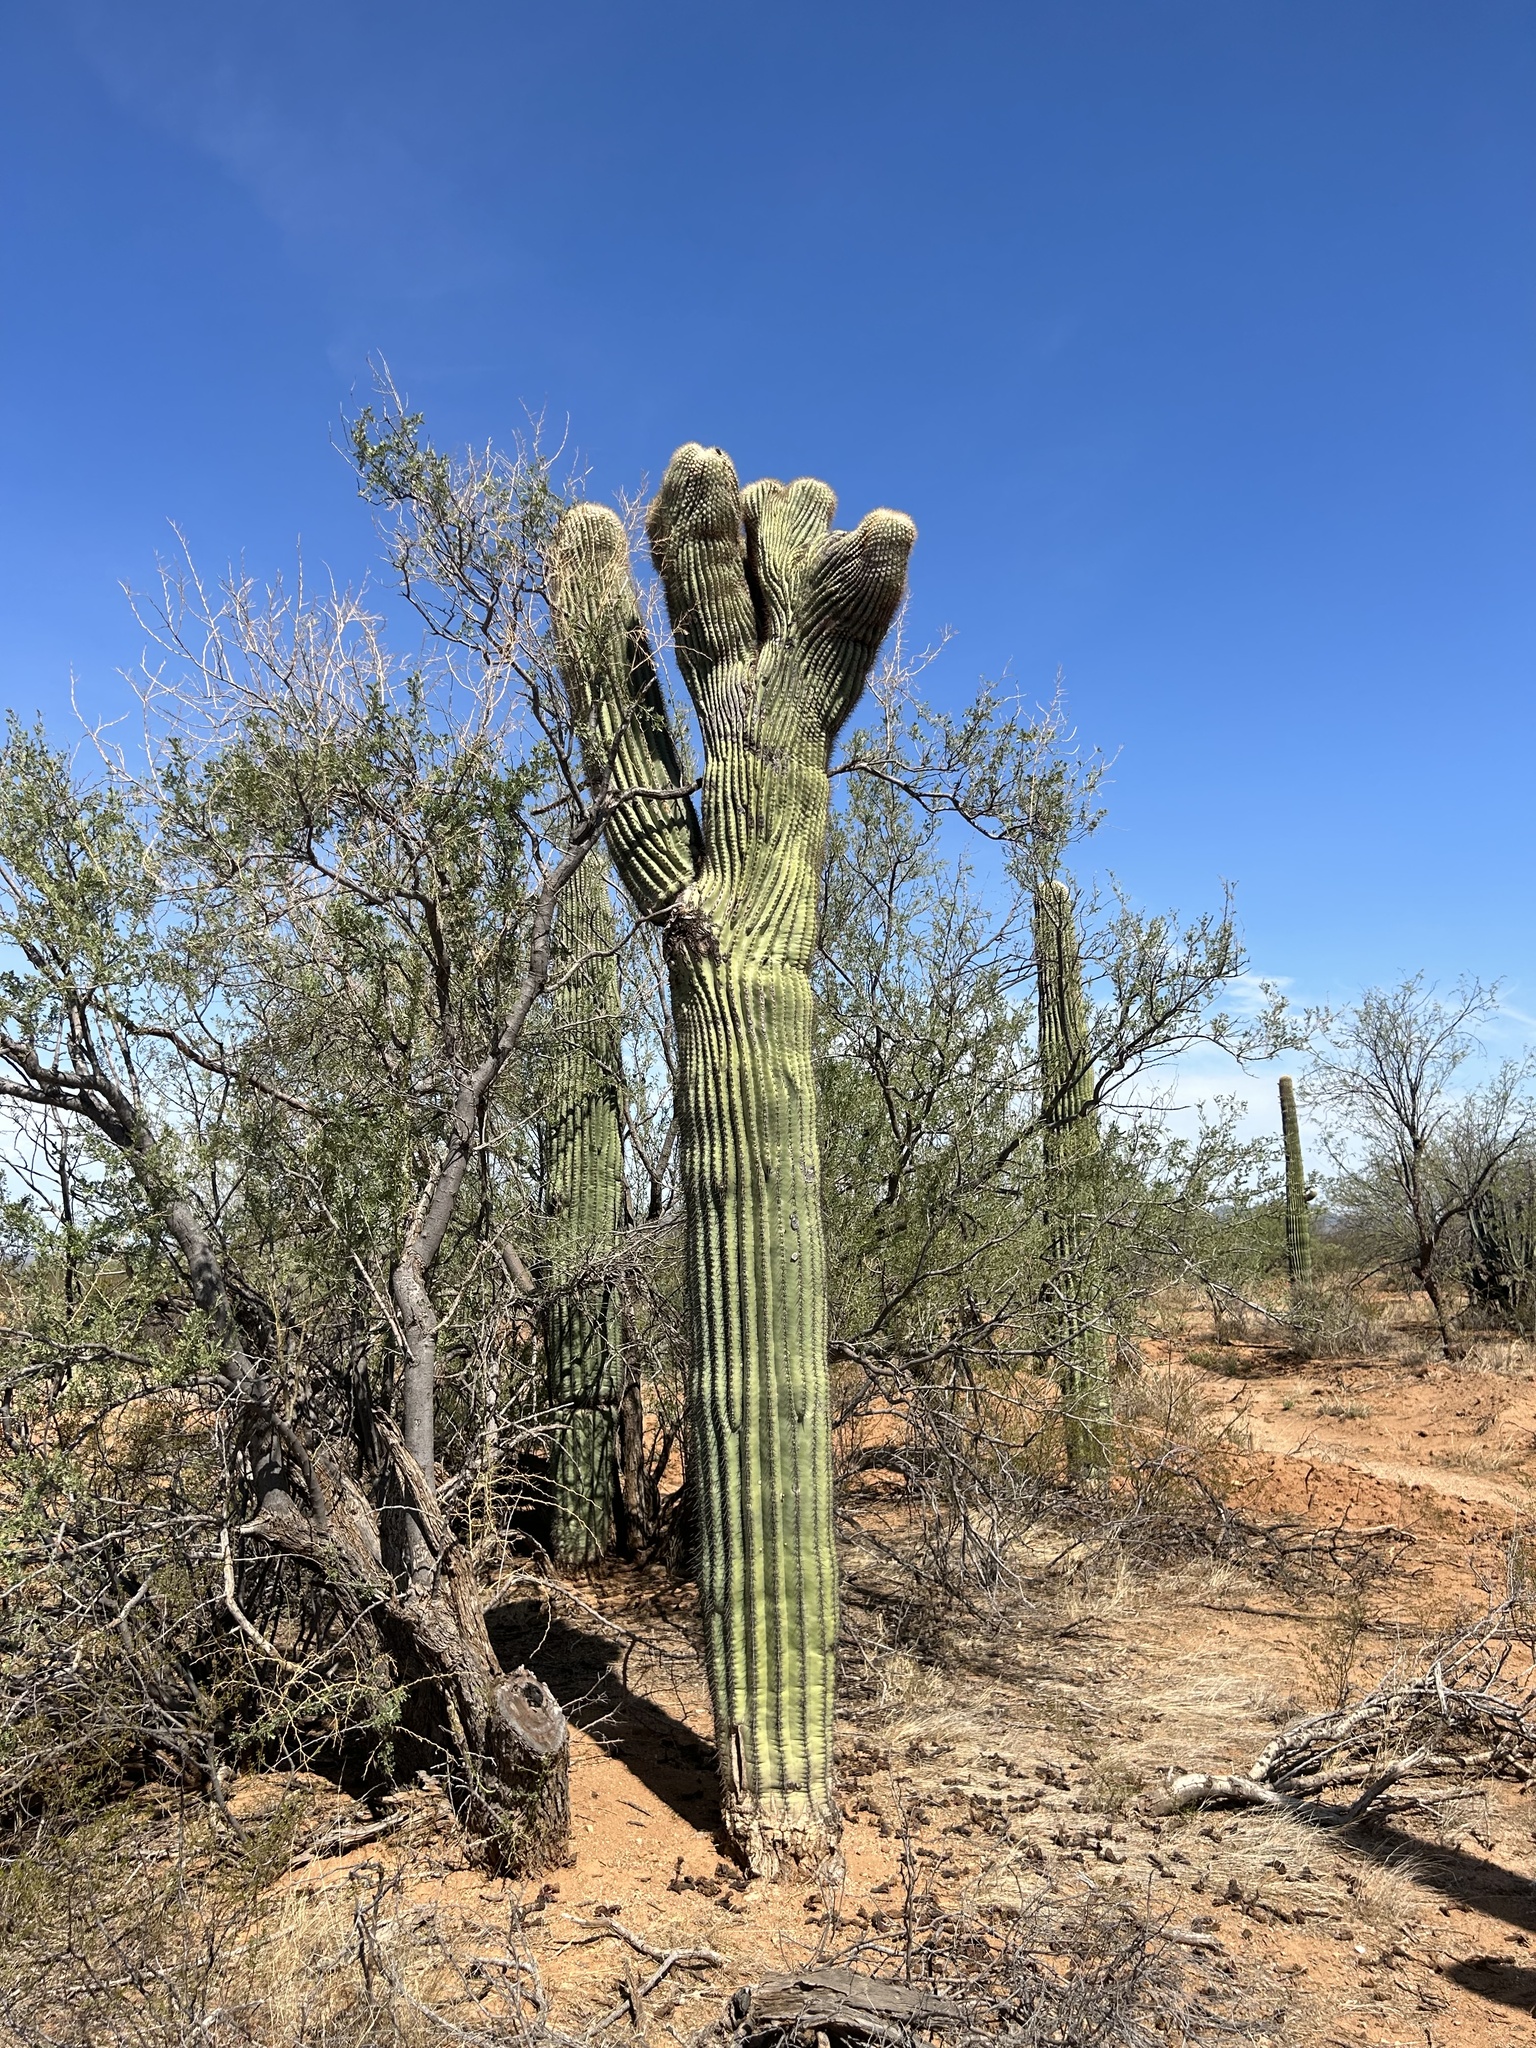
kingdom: Plantae
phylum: Tracheophyta
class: Magnoliopsida
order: Caryophyllales
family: Cactaceae
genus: Carnegiea
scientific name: Carnegiea gigantea
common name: Saguaro
